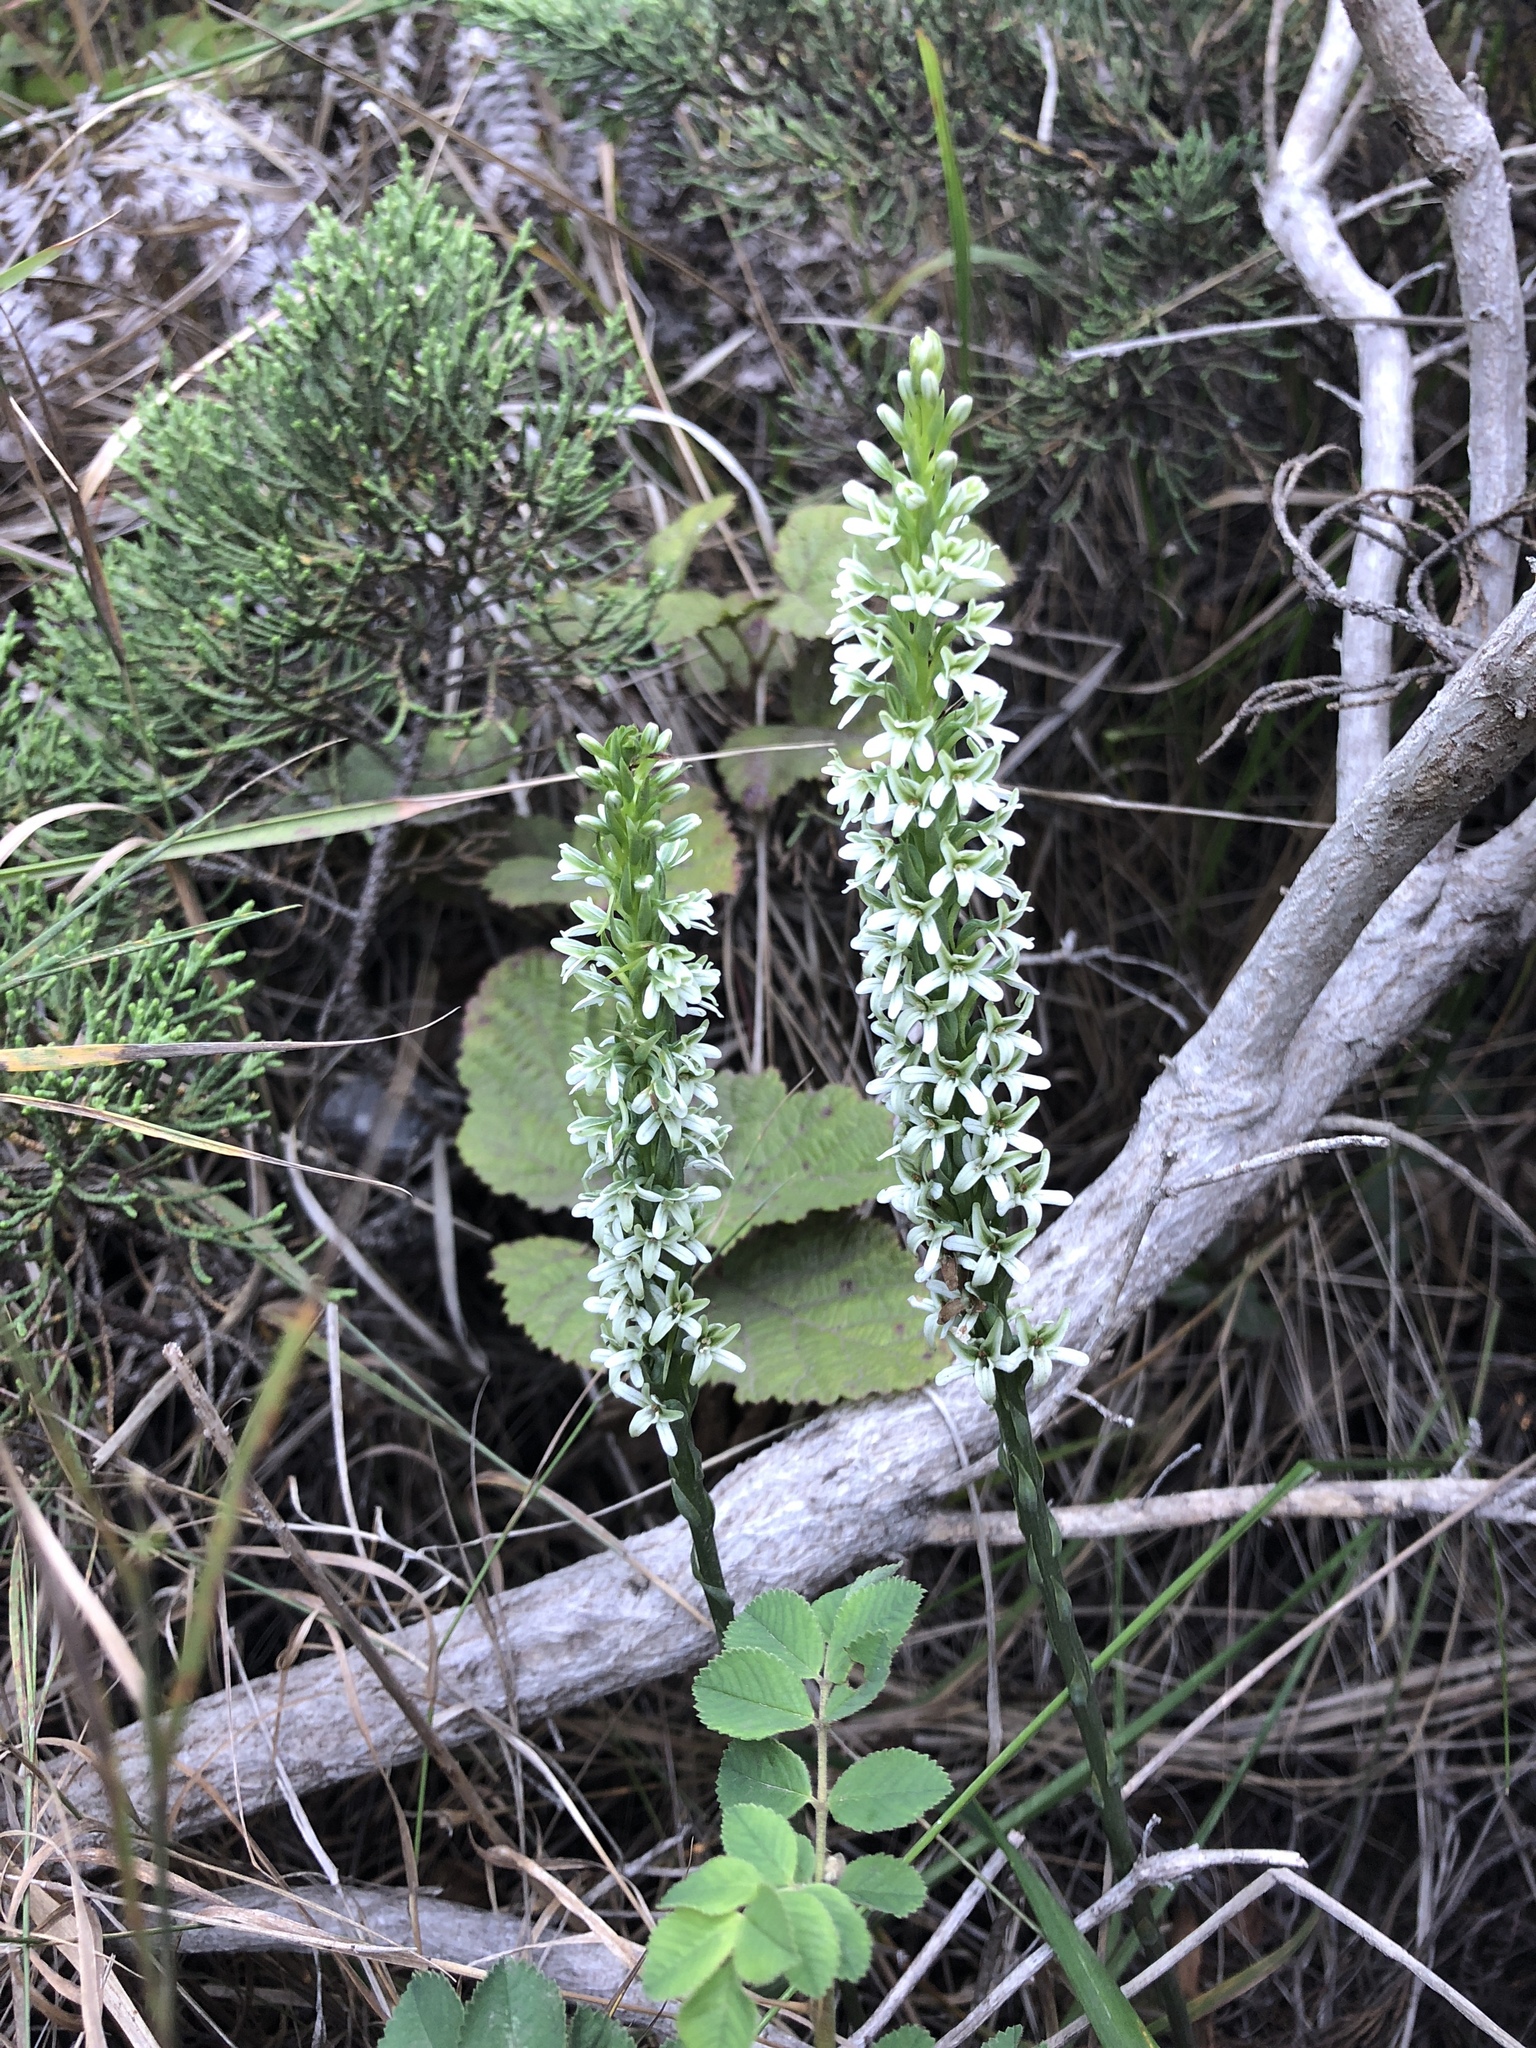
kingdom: Plantae
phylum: Tracheophyta
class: Liliopsida
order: Asparagales
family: Orchidaceae
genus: Platanthera
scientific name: Platanthera elegans
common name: Coast piperia
